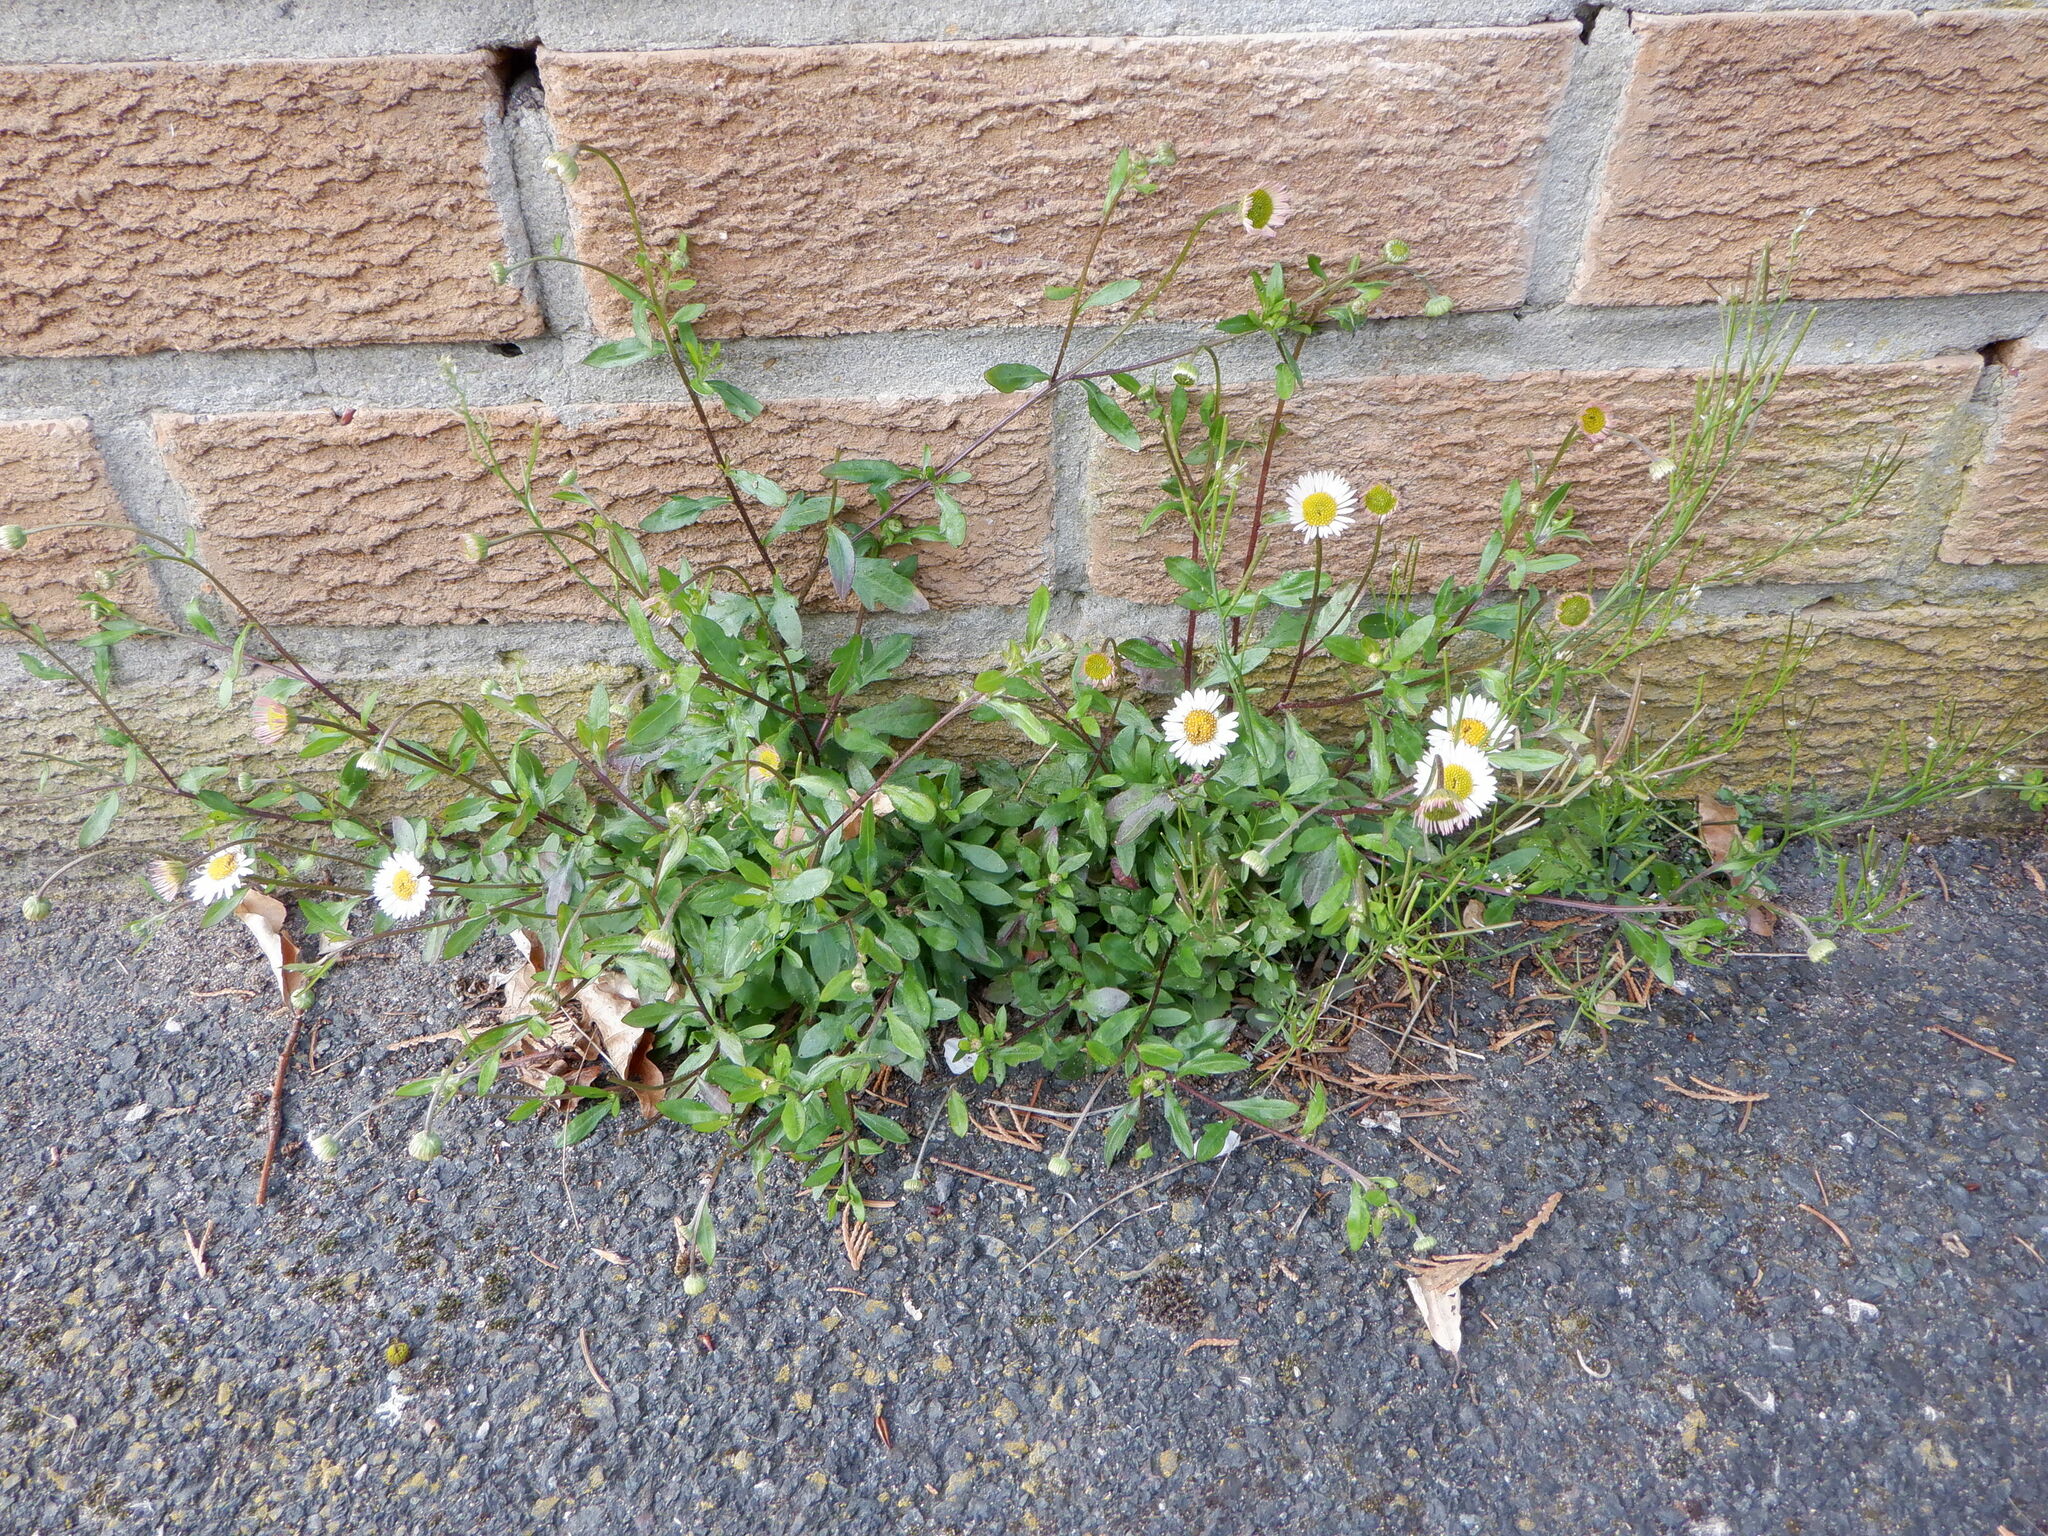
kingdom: Plantae
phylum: Tracheophyta
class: Magnoliopsida
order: Asterales
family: Asteraceae
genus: Erigeron
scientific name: Erigeron karvinskianus
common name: Mexican fleabane
